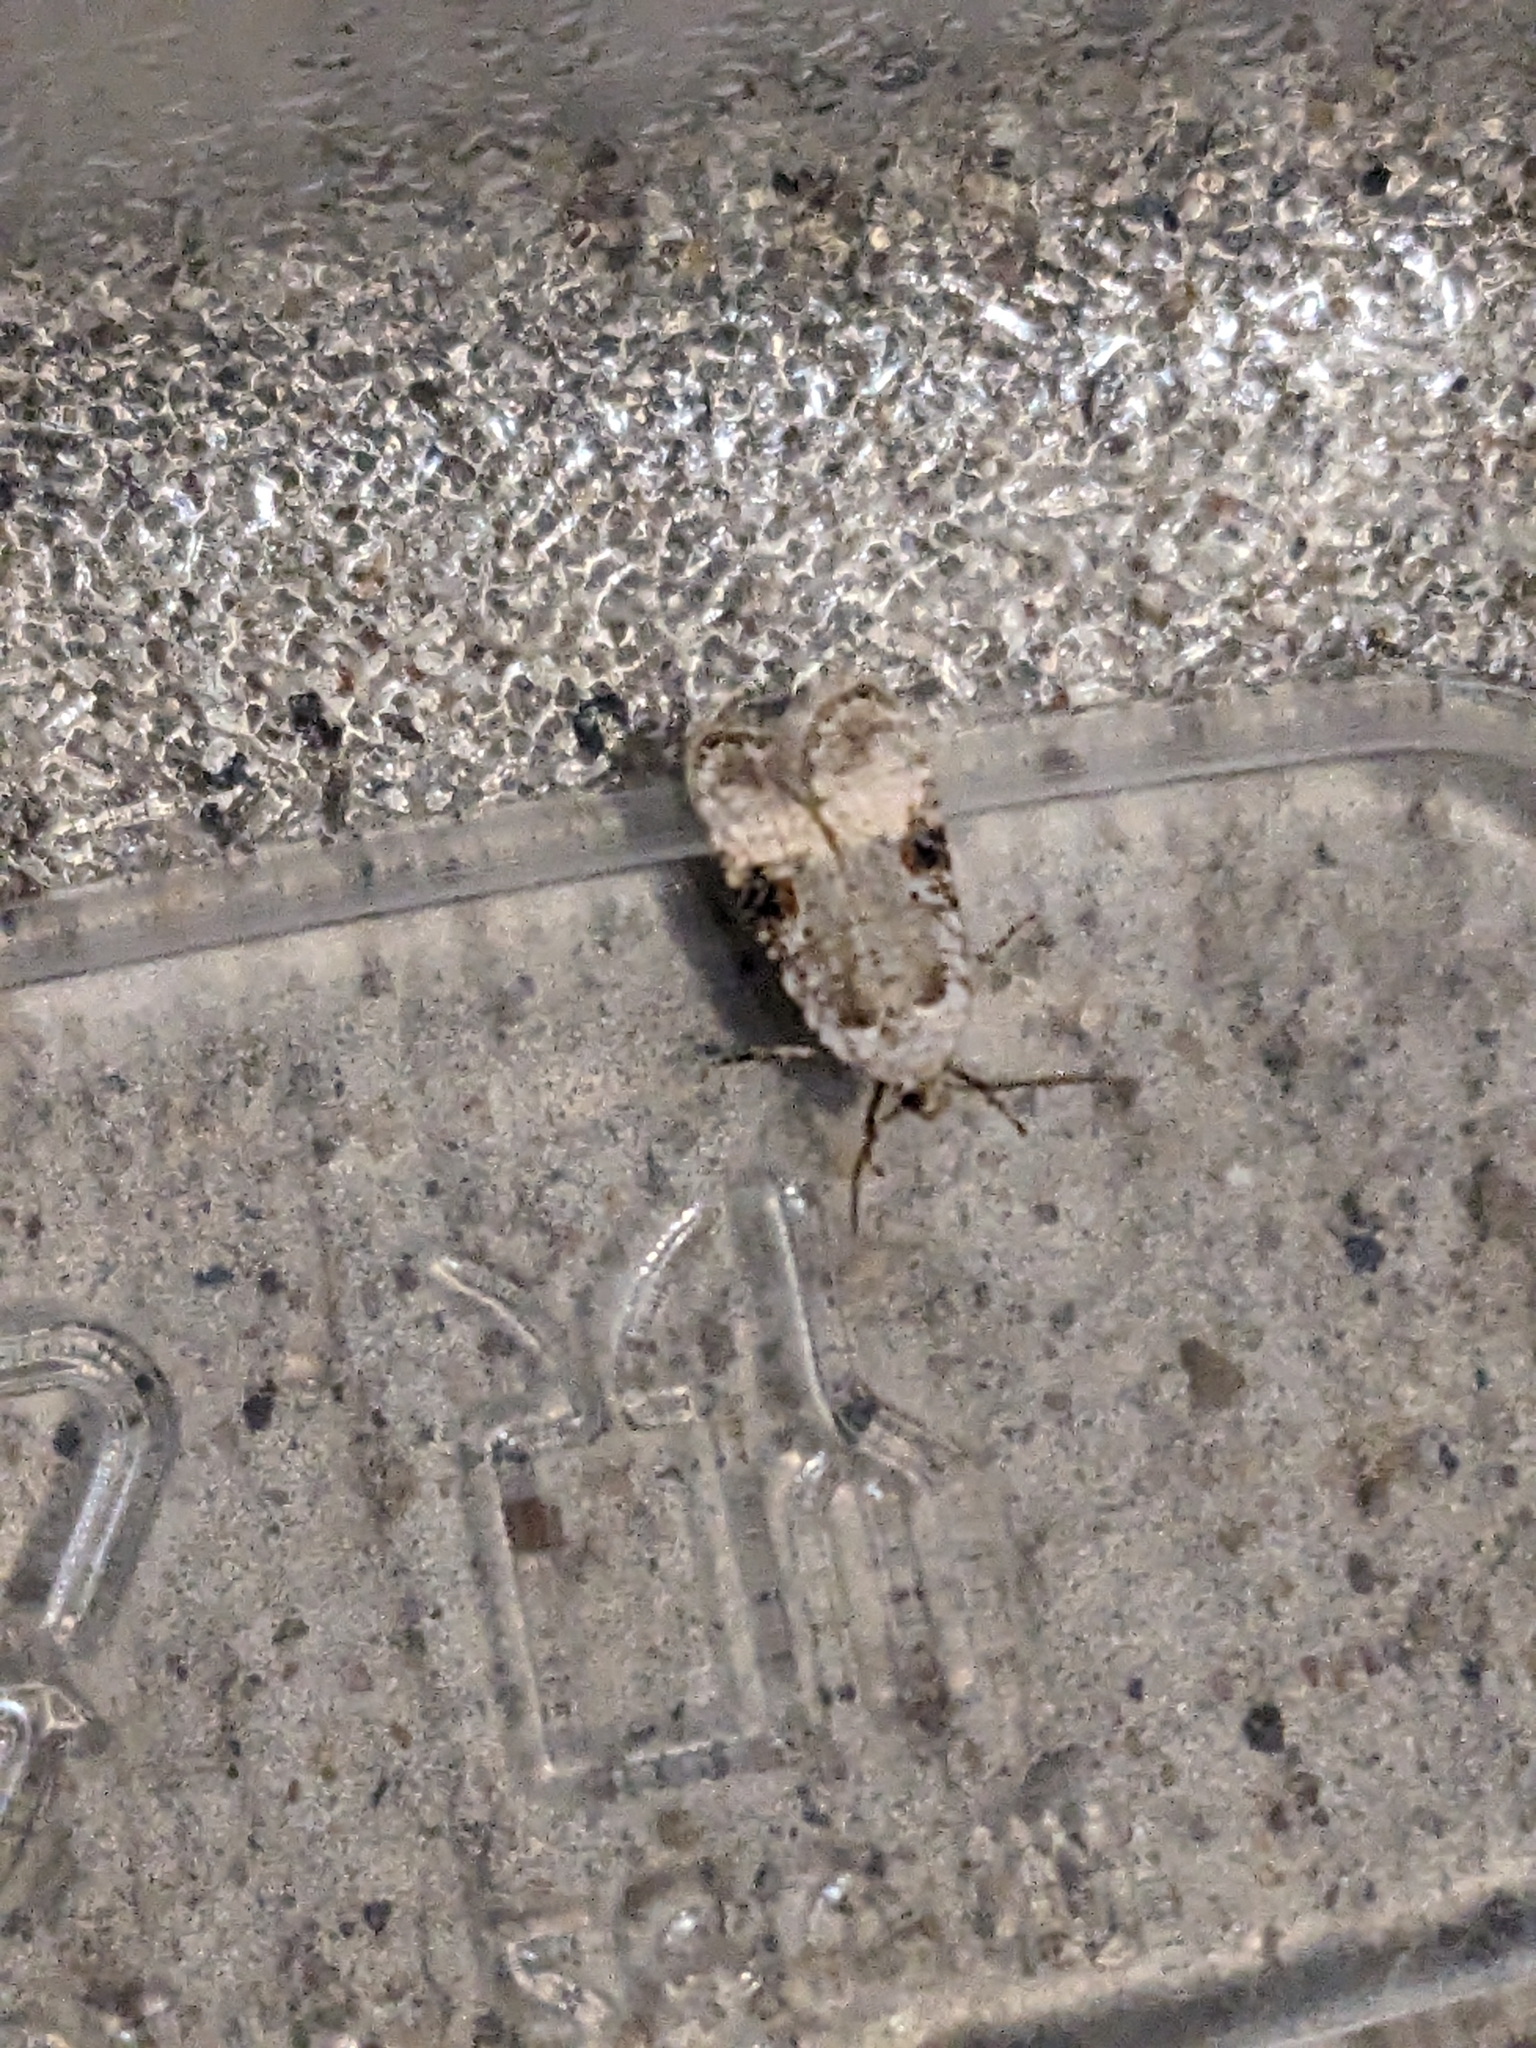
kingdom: Animalia
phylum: Arthropoda
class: Insecta
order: Lepidoptera
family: Depressariidae
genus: Agonopterix
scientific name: Agonopterix alstroemeriana
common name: Moth
